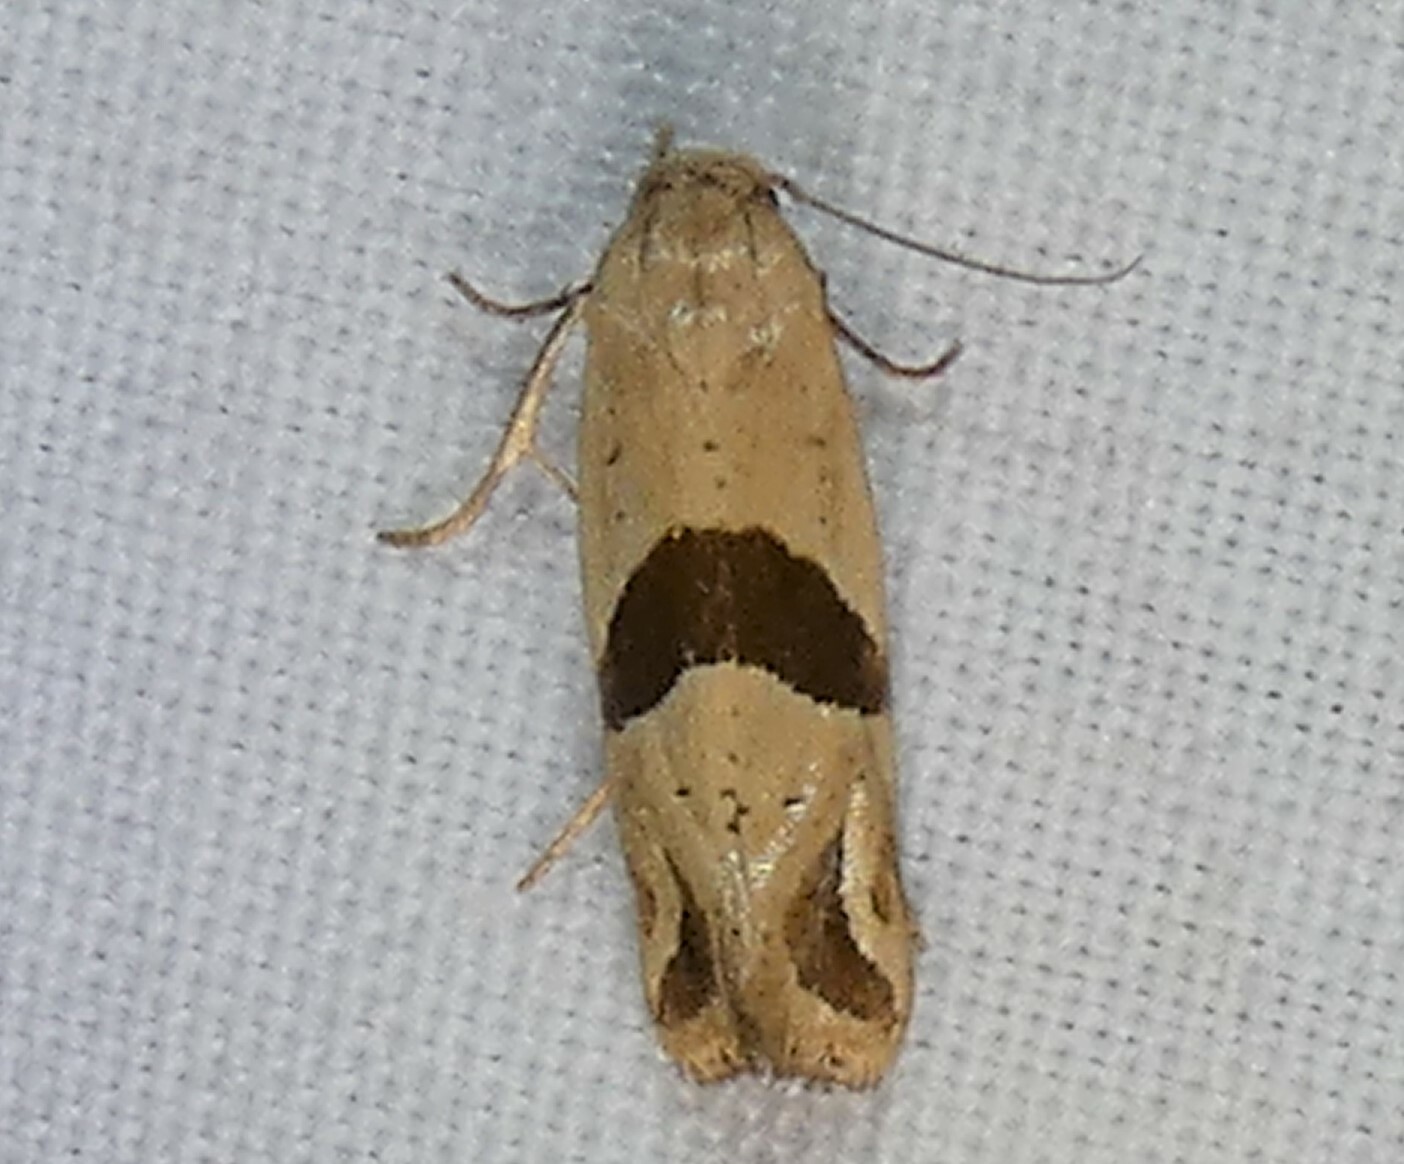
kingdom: Animalia
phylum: Arthropoda
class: Insecta
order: Lepidoptera
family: Tortricidae
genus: Eugnosta
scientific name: Eugnosta sartana
